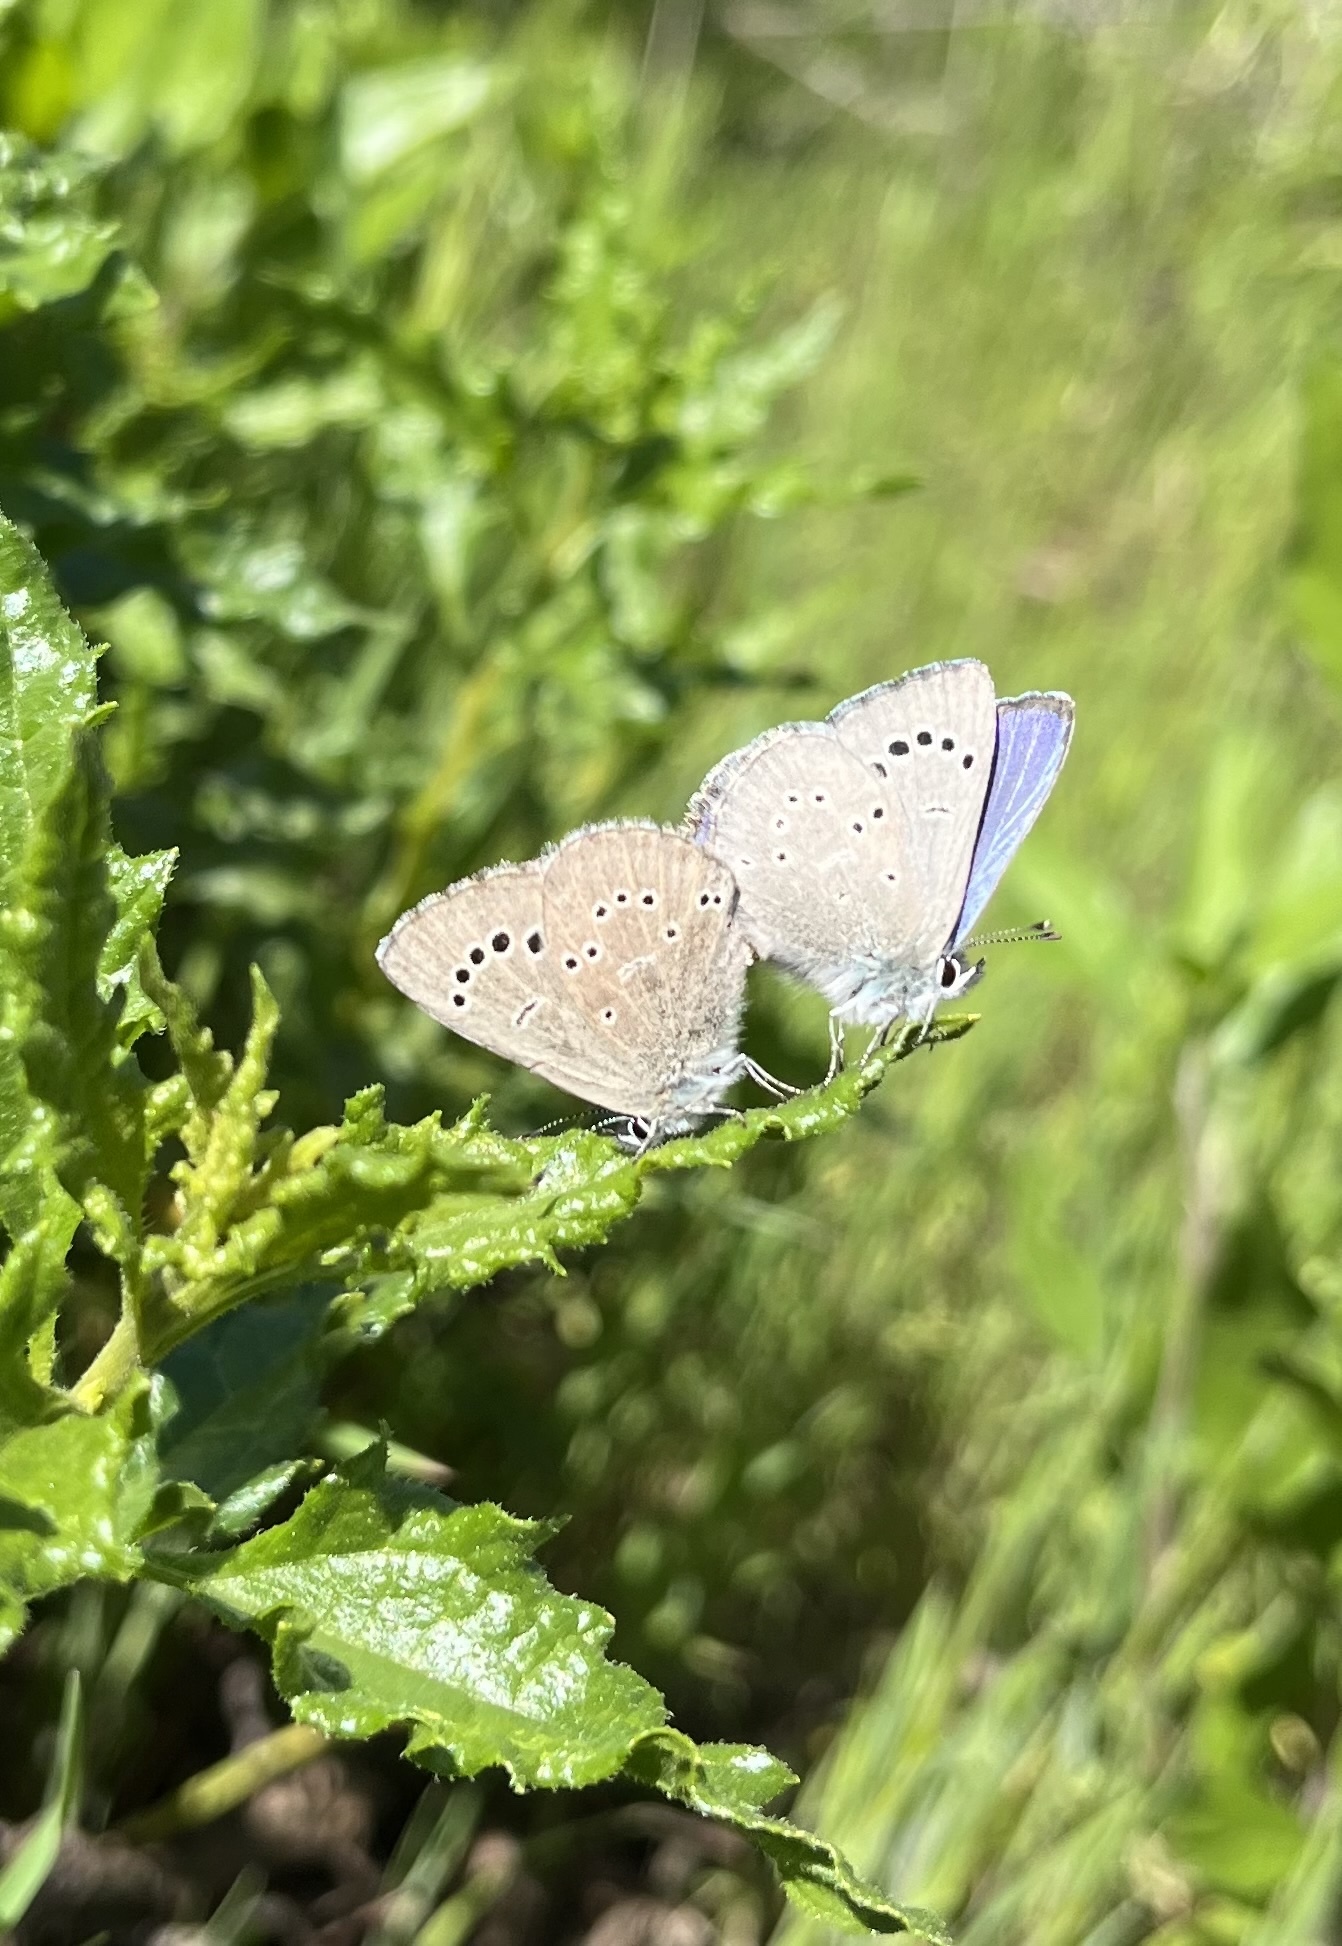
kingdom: Animalia
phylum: Arthropoda
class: Insecta
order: Lepidoptera
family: Lycaenidae
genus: Glaucopsyche
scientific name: Glaucopsyche lygdamus
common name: Silvery blue
